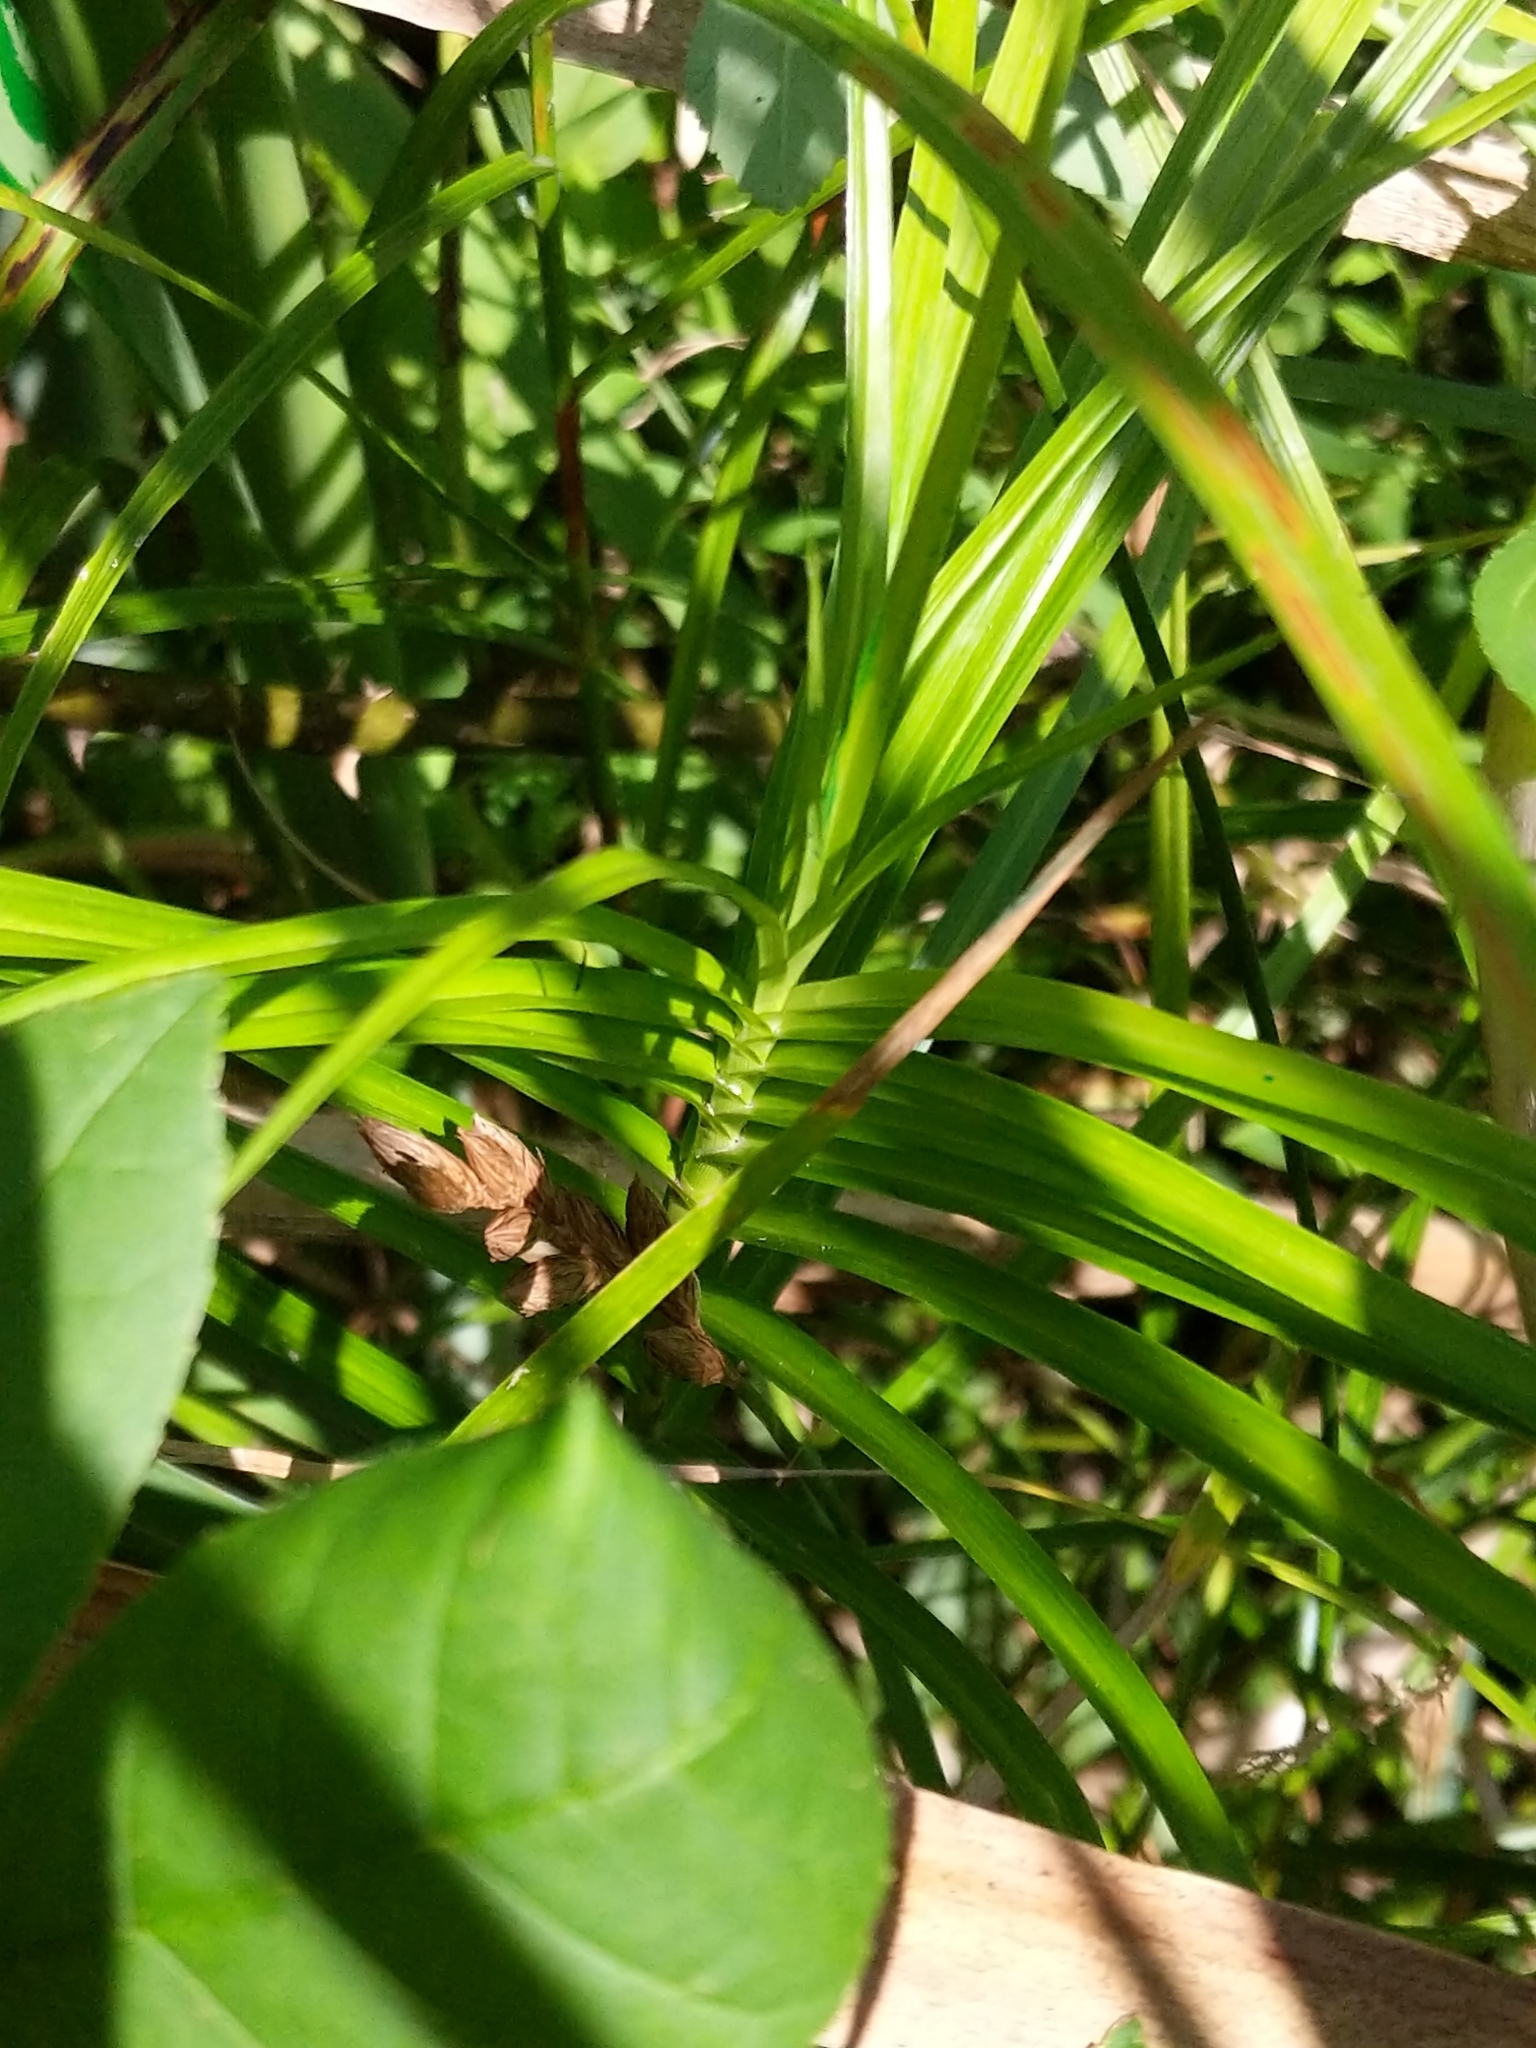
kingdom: Plantae
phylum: Tracheophyta
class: Liliopsida
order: Poales
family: Cyperaceae
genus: Carex
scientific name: Carex muskingumensis
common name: Muskingum sedge
